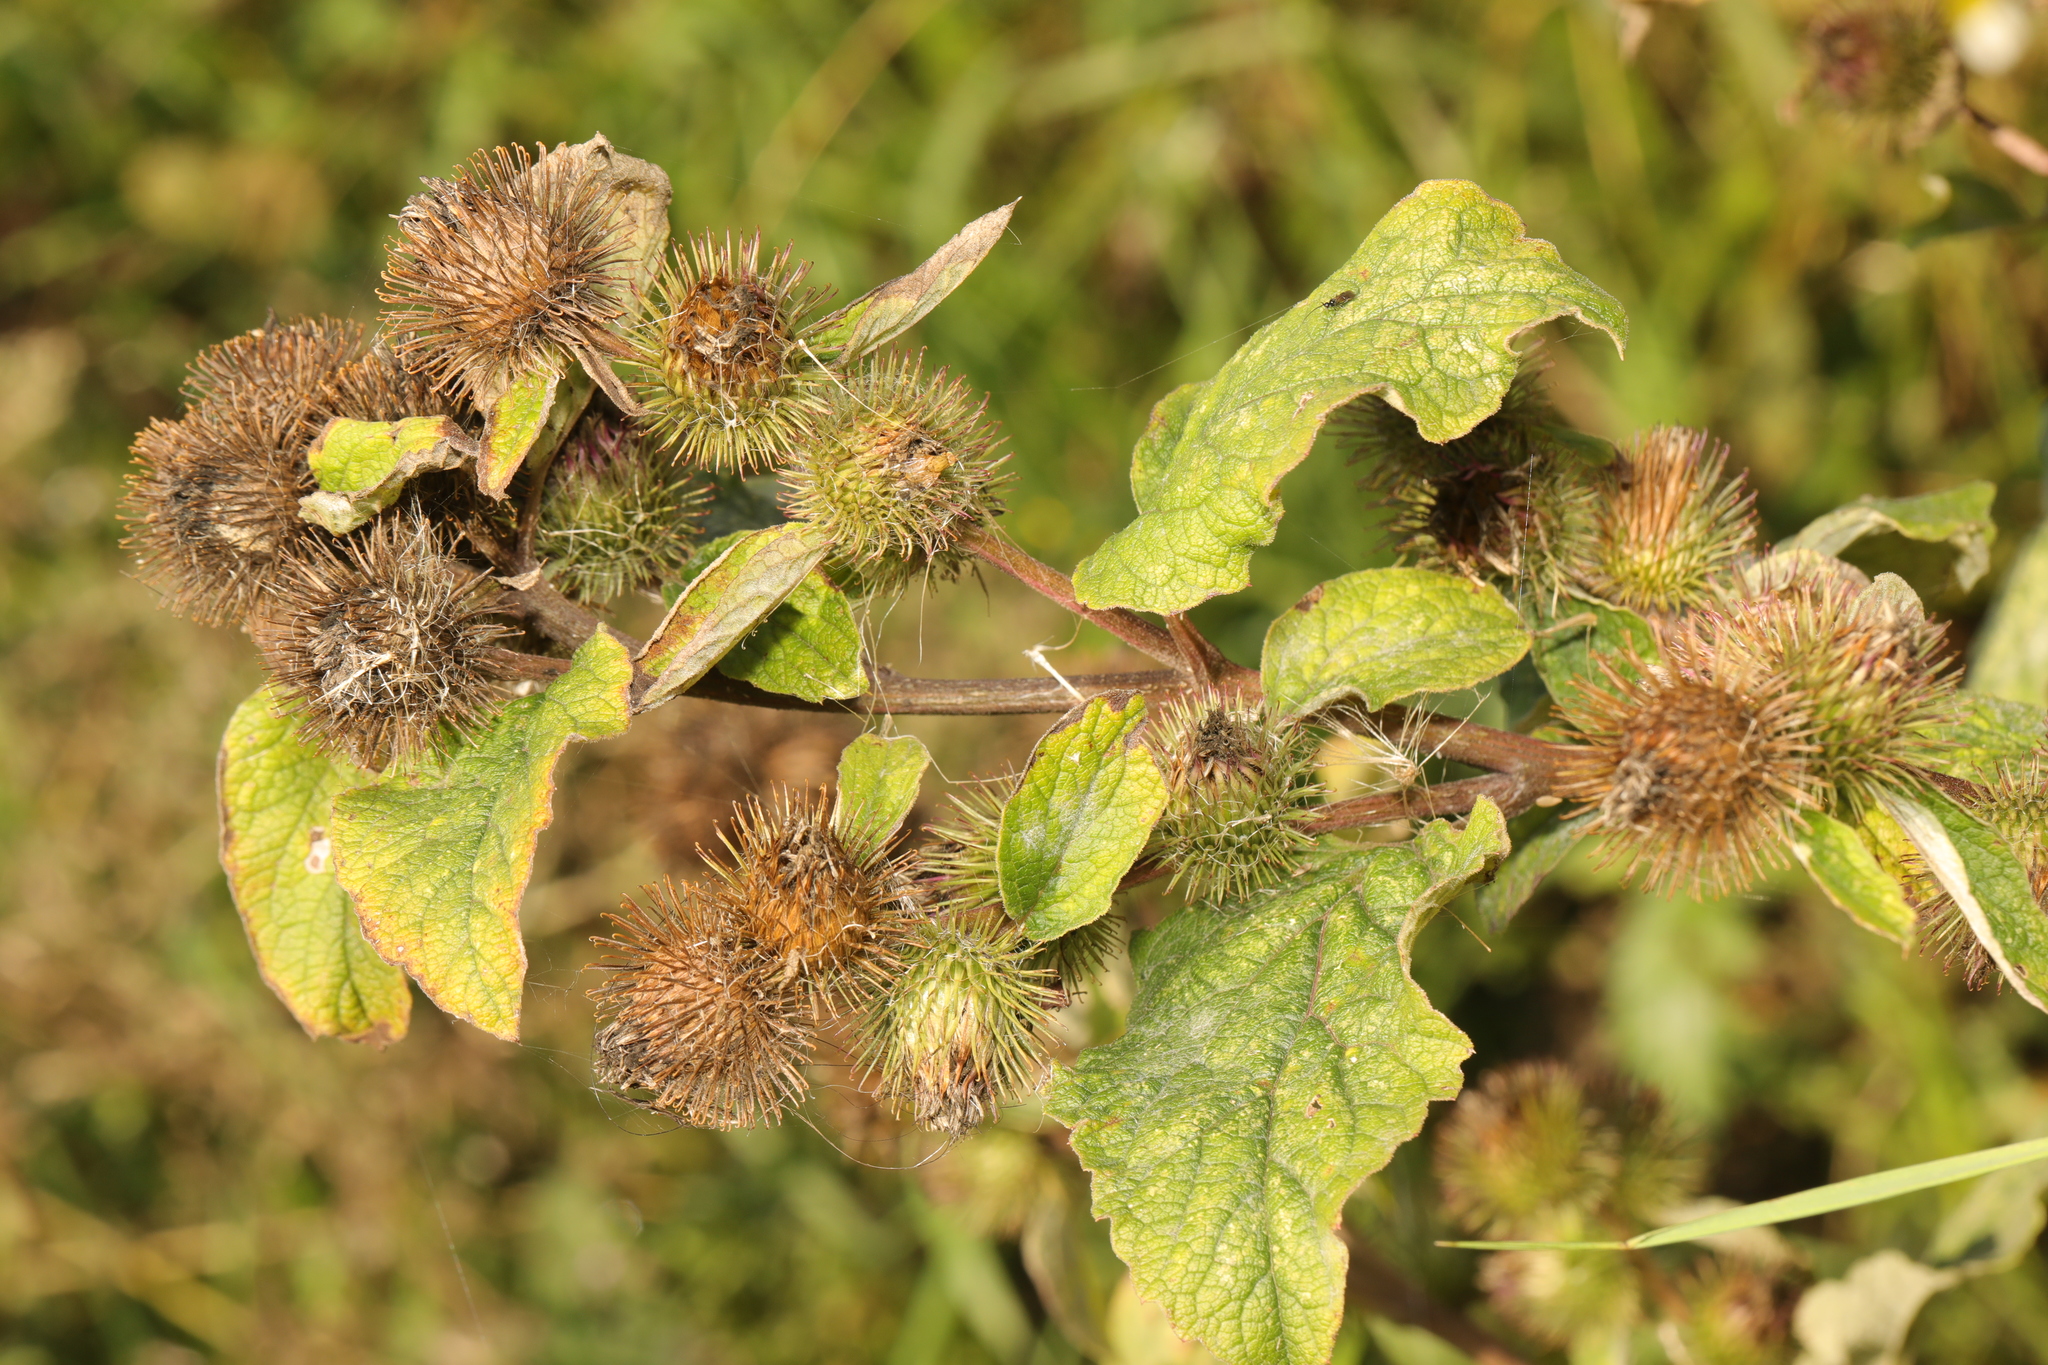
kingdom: Plantae
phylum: Tracheophyta
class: Magnoliopsida
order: Asterales
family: Asteraceae
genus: Arctium
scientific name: Arctium minus
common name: Lesser burdock
